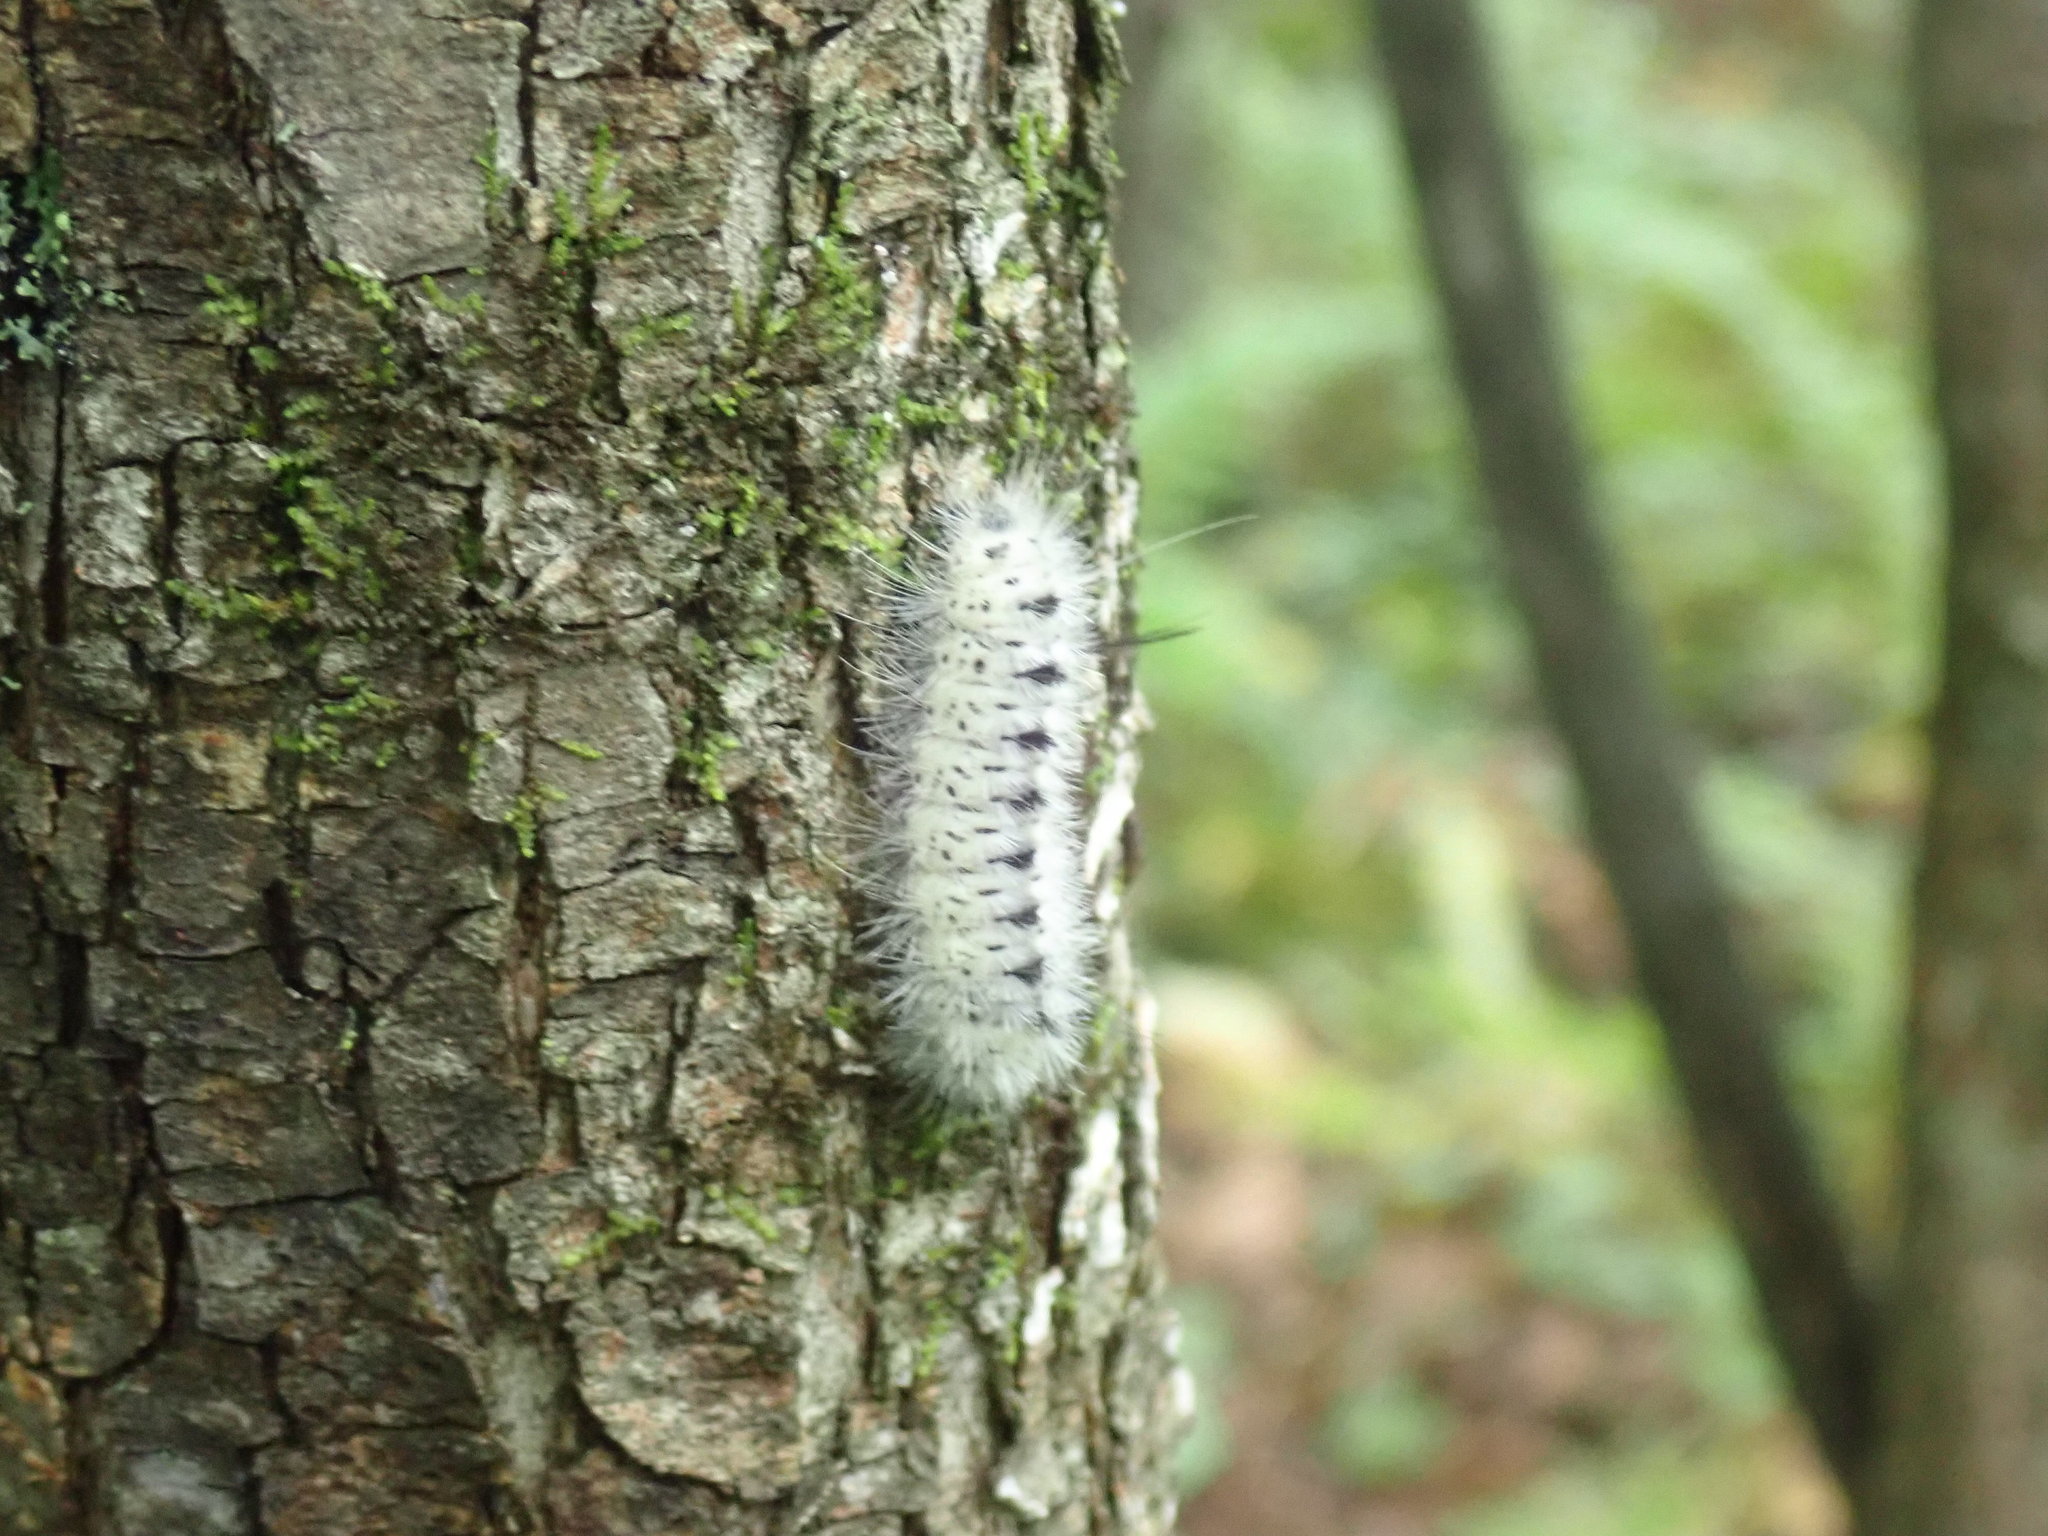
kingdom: Animalia
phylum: Arthropoda
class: Insecta
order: Lepidoptera
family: Erebidae
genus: Lophocampa
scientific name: Lophocampa caryae
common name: Hickory tussock moth
